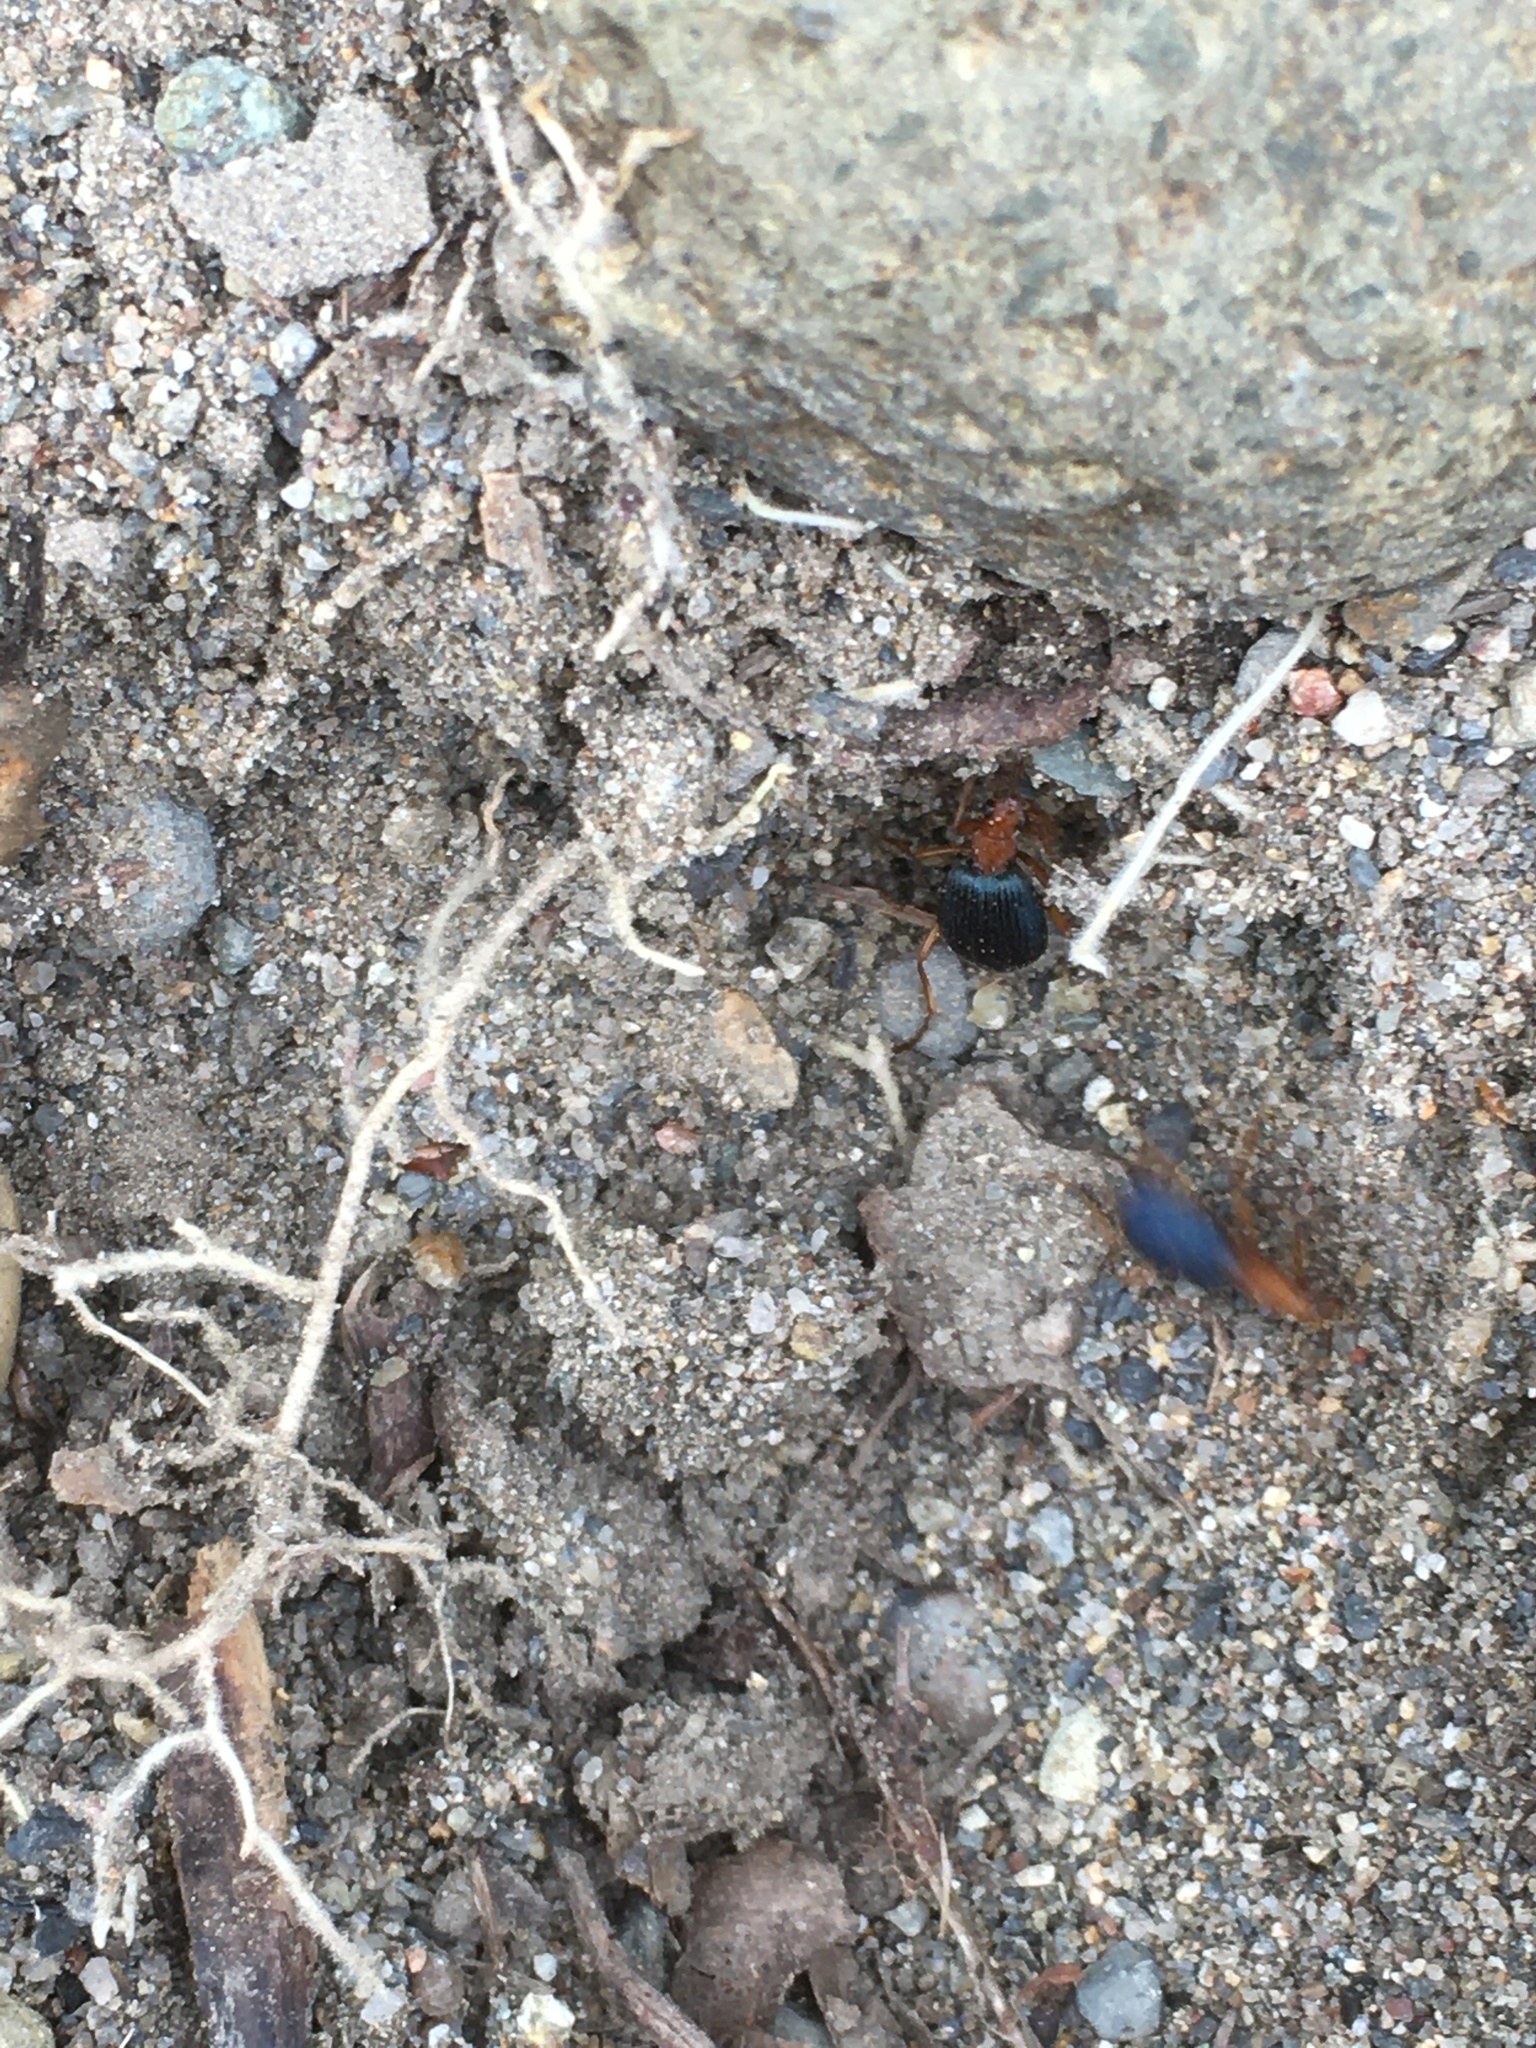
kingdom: Animalia
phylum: Arthropoda
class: Insecta
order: Coleoptera
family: Carabidae
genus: Brachinus
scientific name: Brachinus
